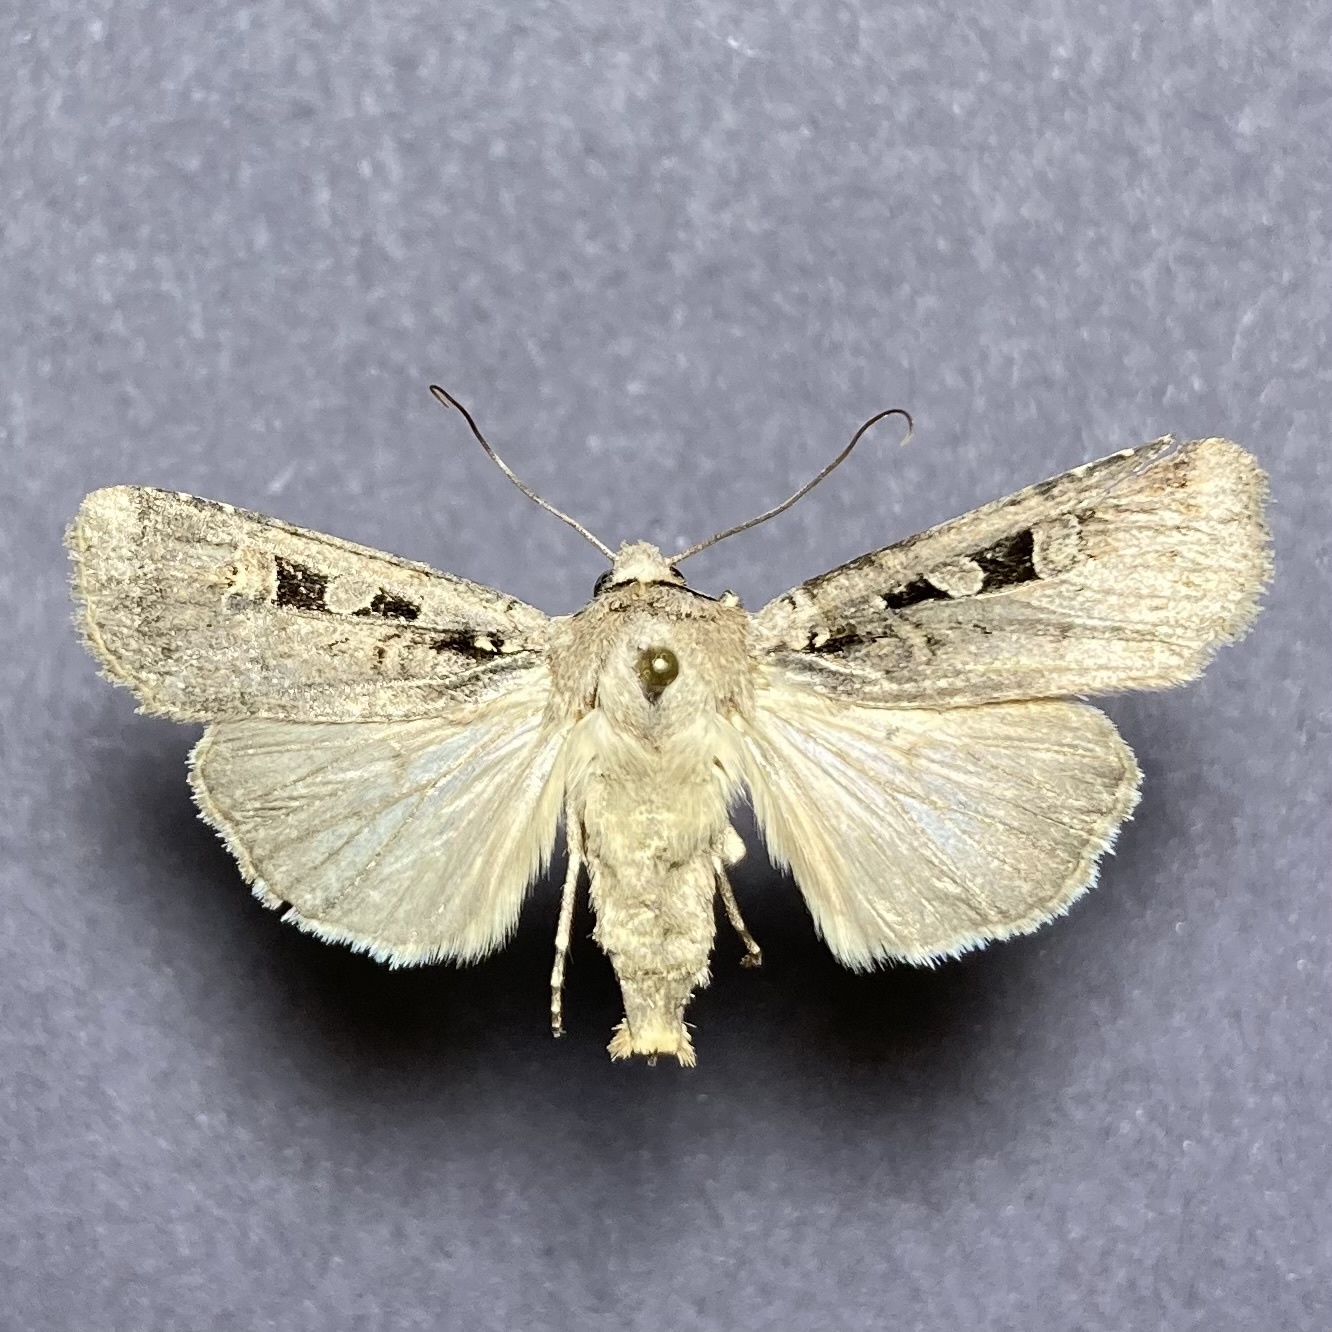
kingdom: Animalia
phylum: Arthropoda
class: Insecta
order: Lepidoptera
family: Noctuidae
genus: Euxoa
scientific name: Euxoa tessellata
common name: Striped cutworm
